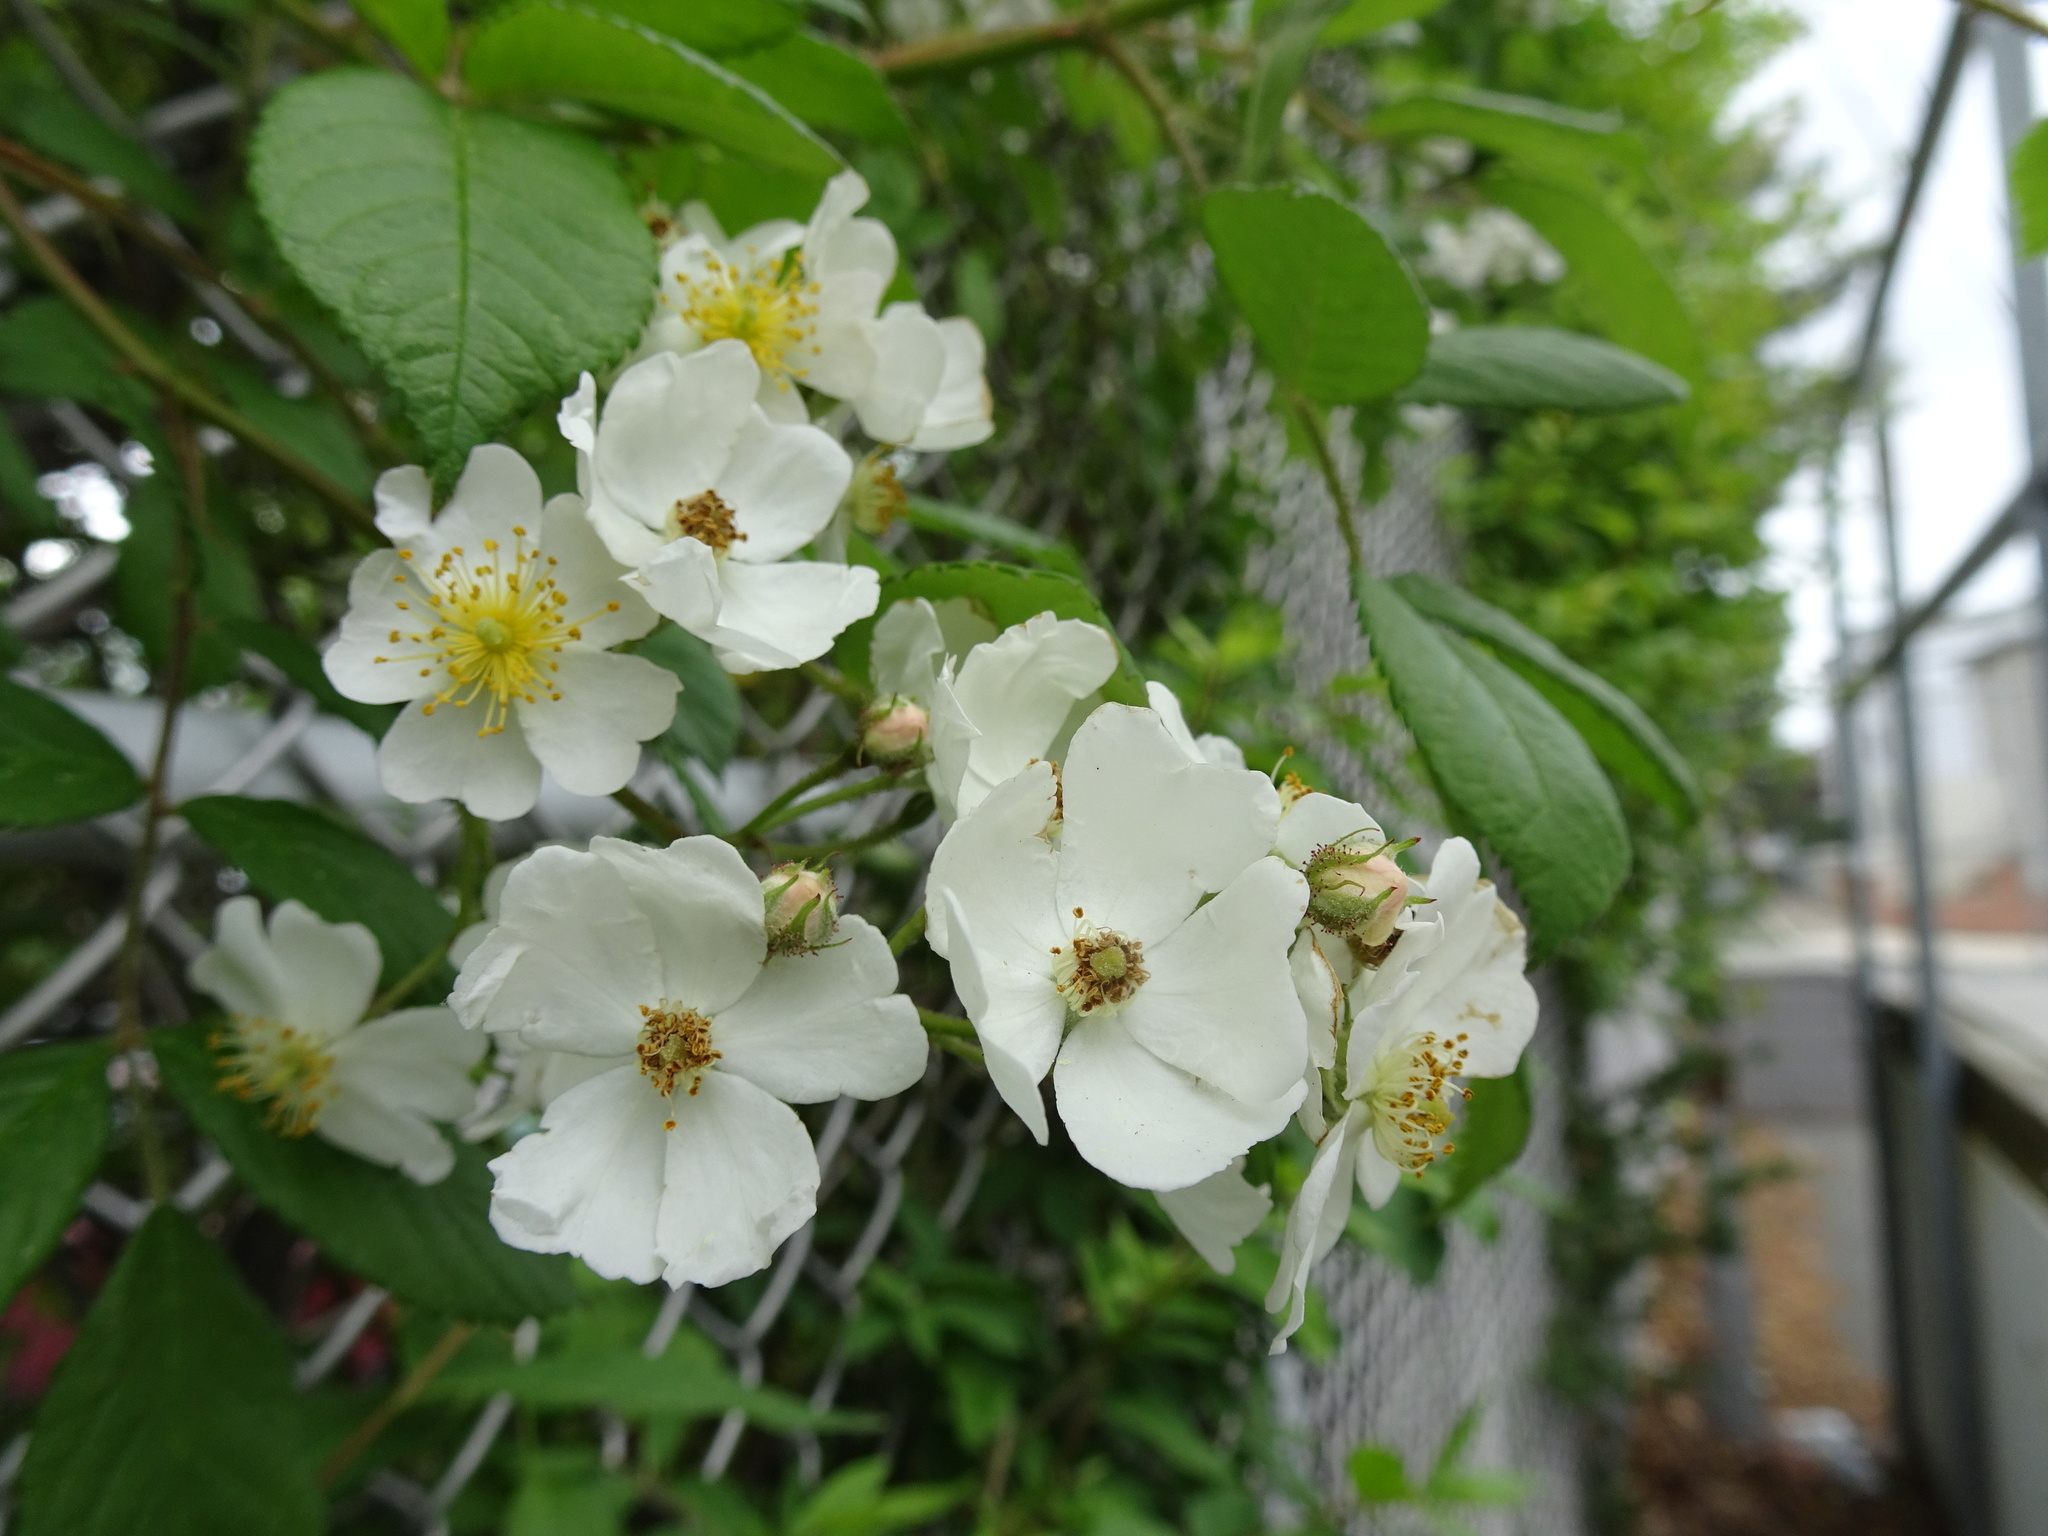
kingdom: Plantae
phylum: Tracheophyta
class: Magnoliopsida
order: Rosales
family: Rosaceae
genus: Rosa
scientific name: Rosa multiflora
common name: Multiflora rose
